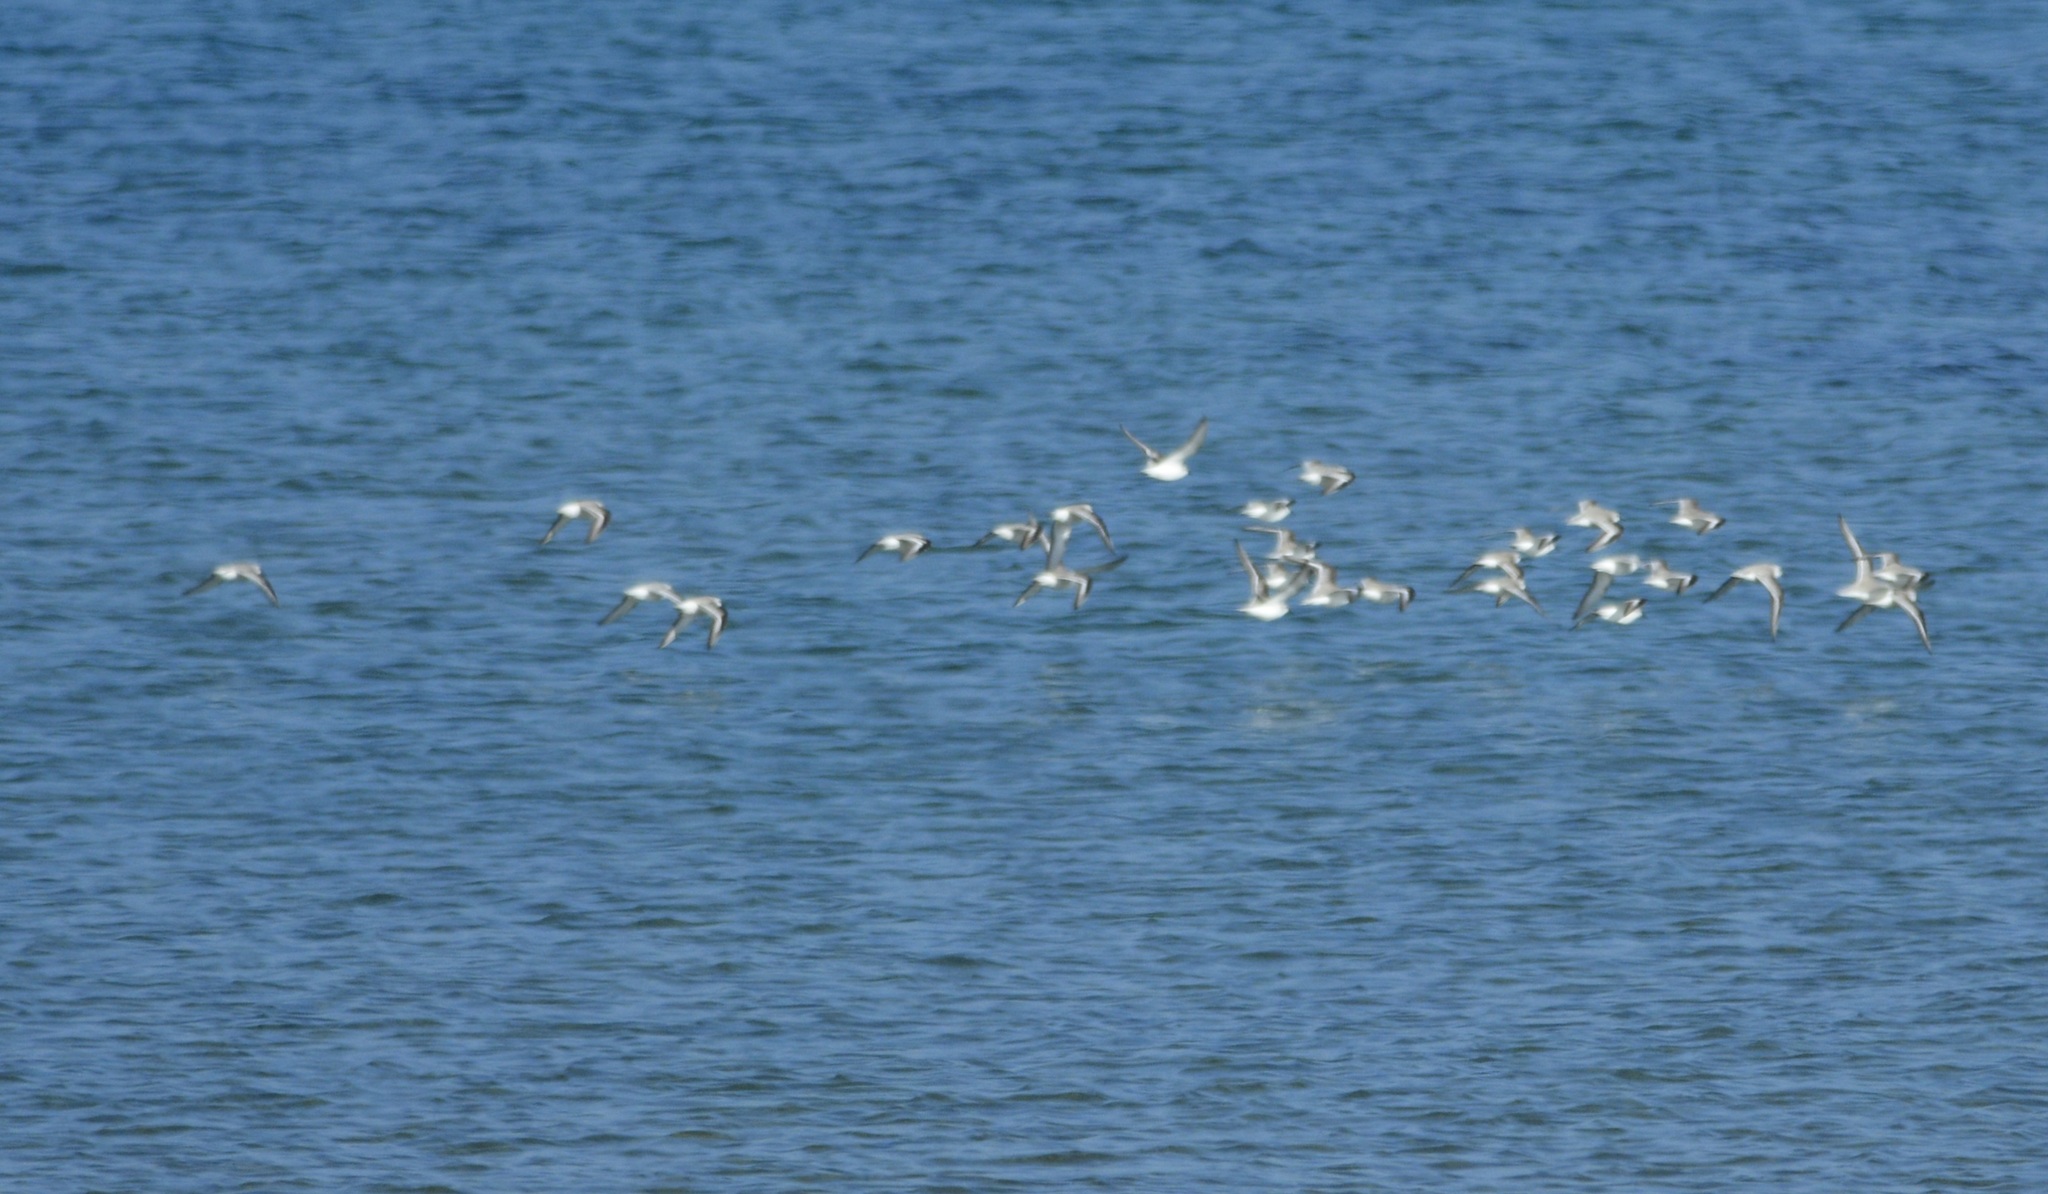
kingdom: Animalia
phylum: Chordata
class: Aves
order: Charadriiformes
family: Scolopacidae
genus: Calidris
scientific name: Calidris alba
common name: Sanderling
